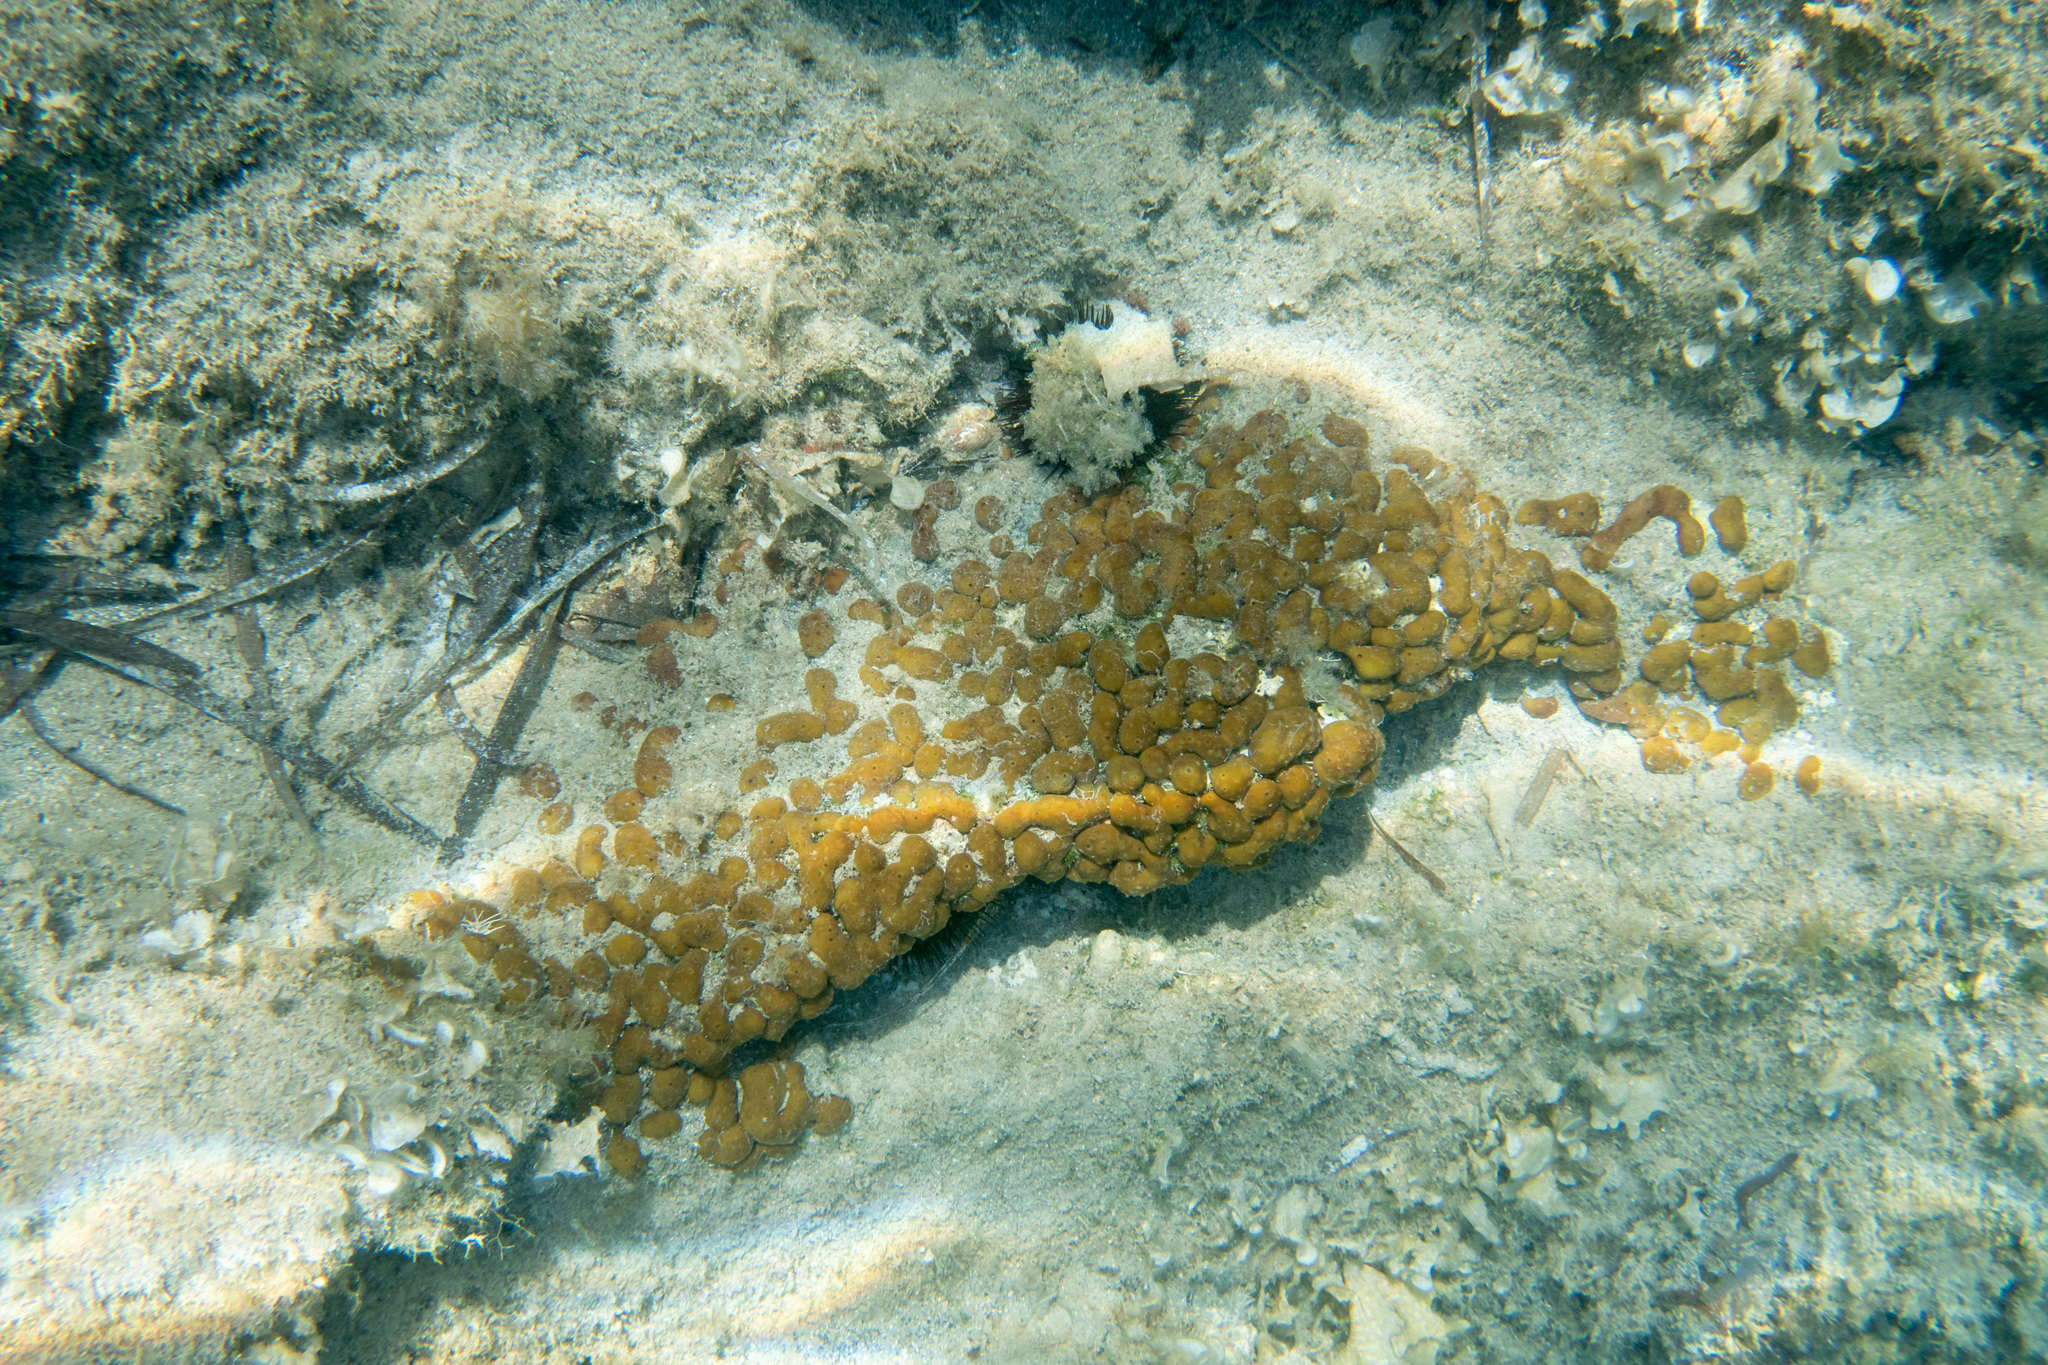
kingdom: Animalia
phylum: Porifera
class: Demospongiae
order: Chondrillida
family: Chondrillidae
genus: Chondrilla
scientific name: Chondrilla nucula
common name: Chicken liver sponge
